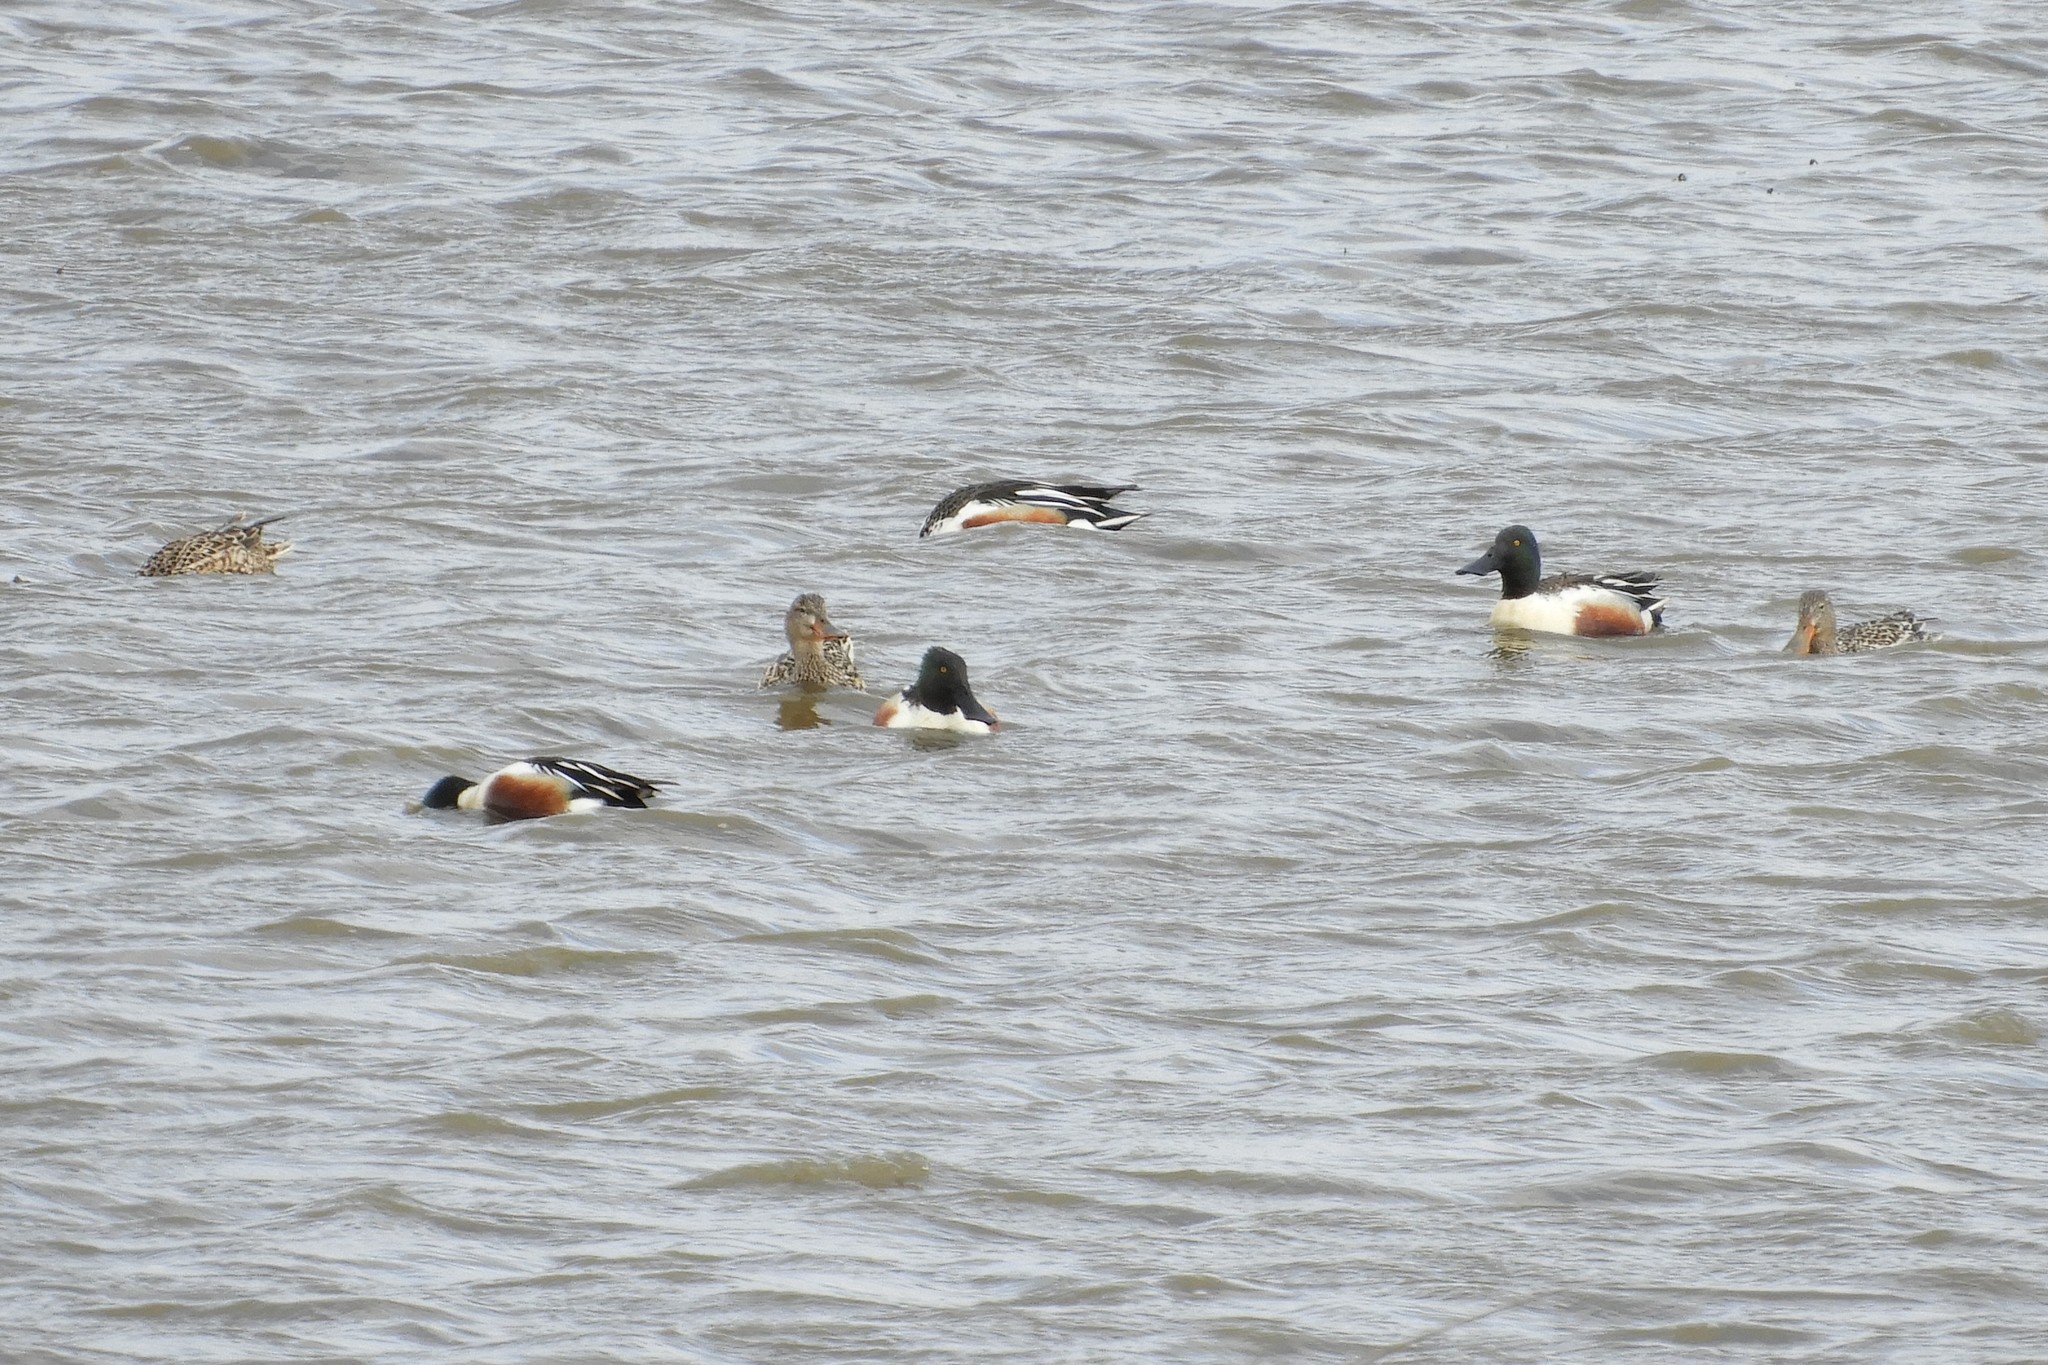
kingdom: Animalia
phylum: Chordata
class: Aves
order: Anseriformes
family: Anatidae
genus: Spatula
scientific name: Spatula clypeata
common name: Northern shoveler
